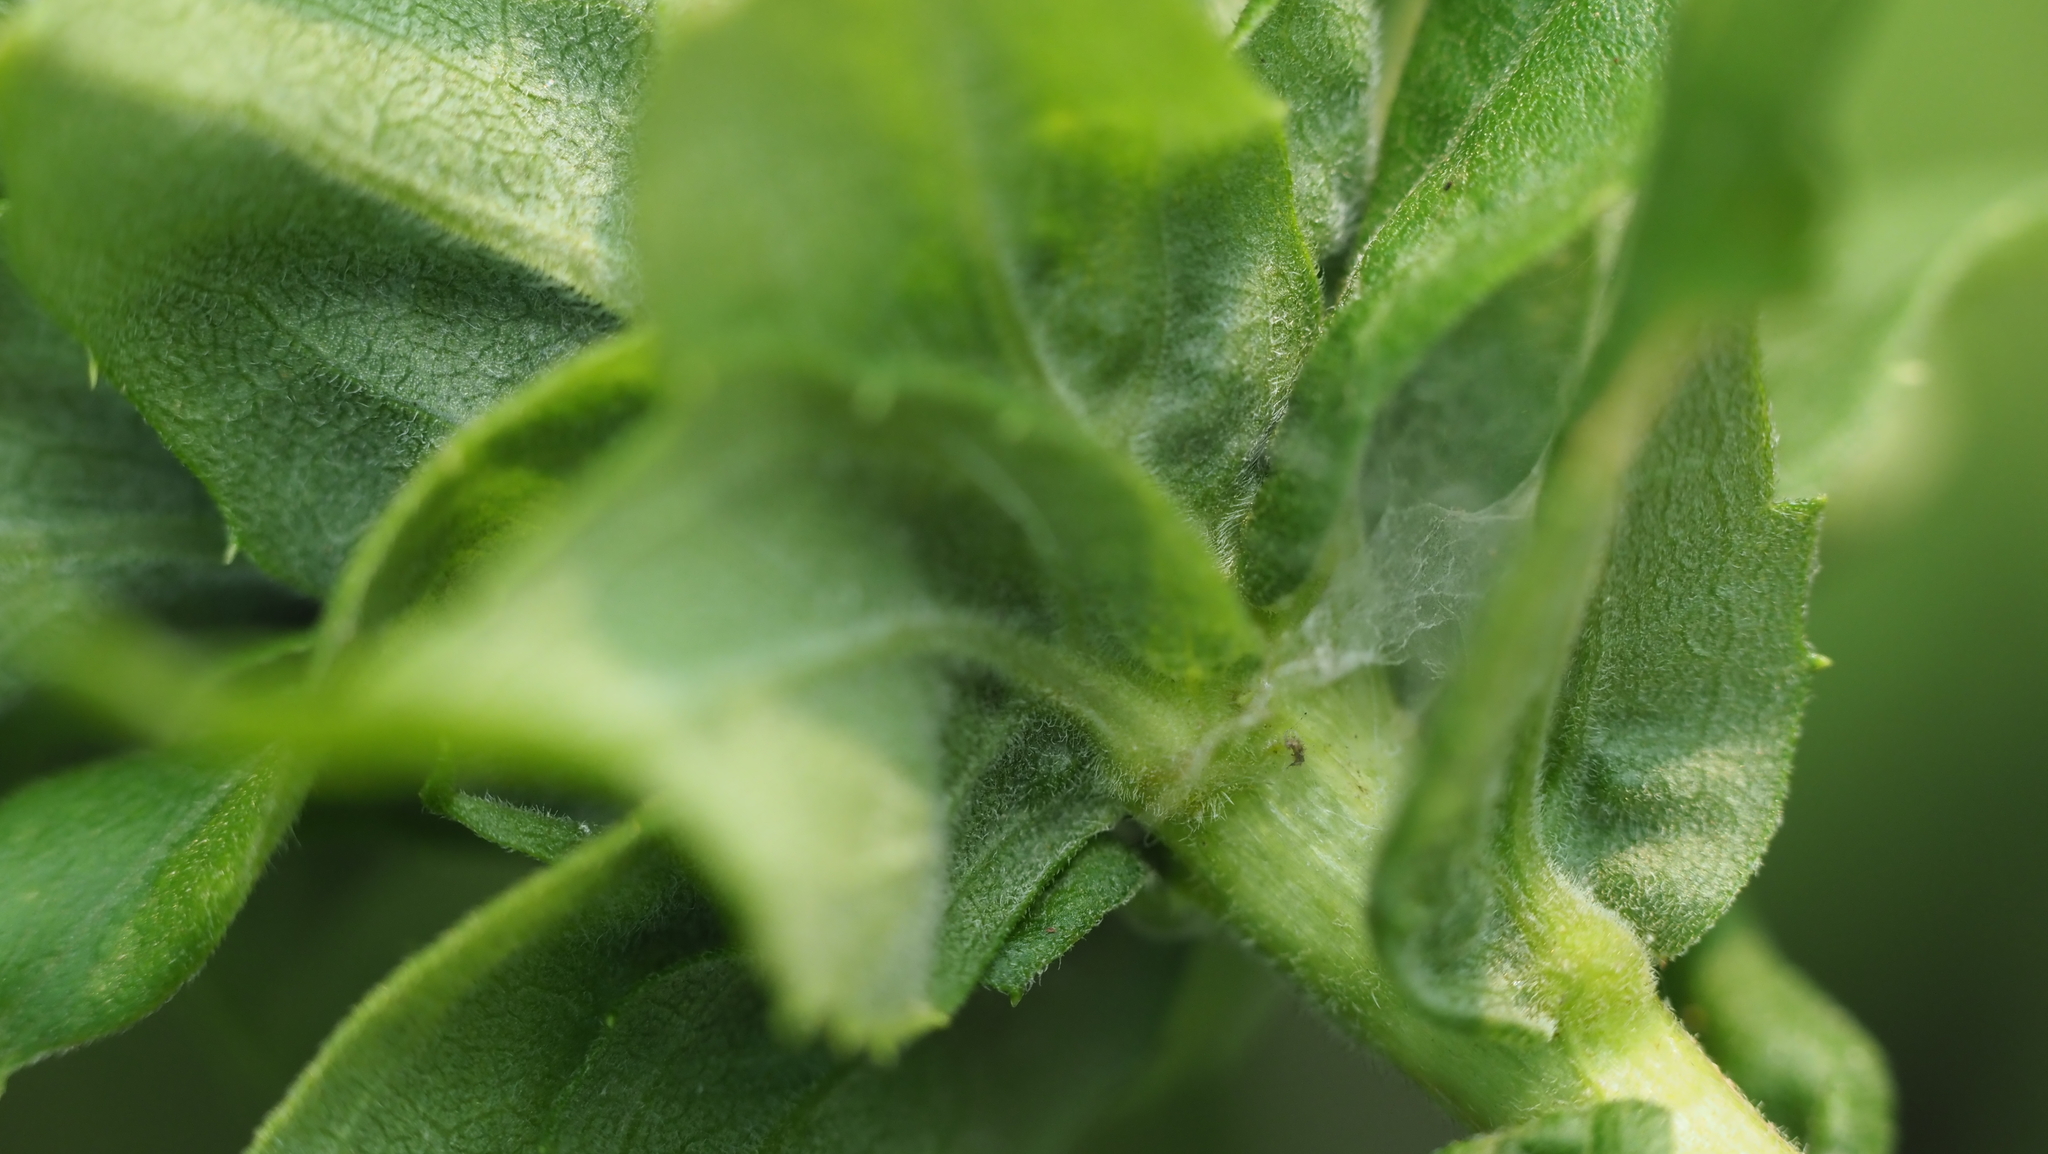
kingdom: Animalia
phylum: Arthropoda
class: Insecta
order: Diptera
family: Cecidomyiidae
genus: Rhopalomyia
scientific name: Rhopalomyia solidaginis
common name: Goldenrod bunch gall midge
